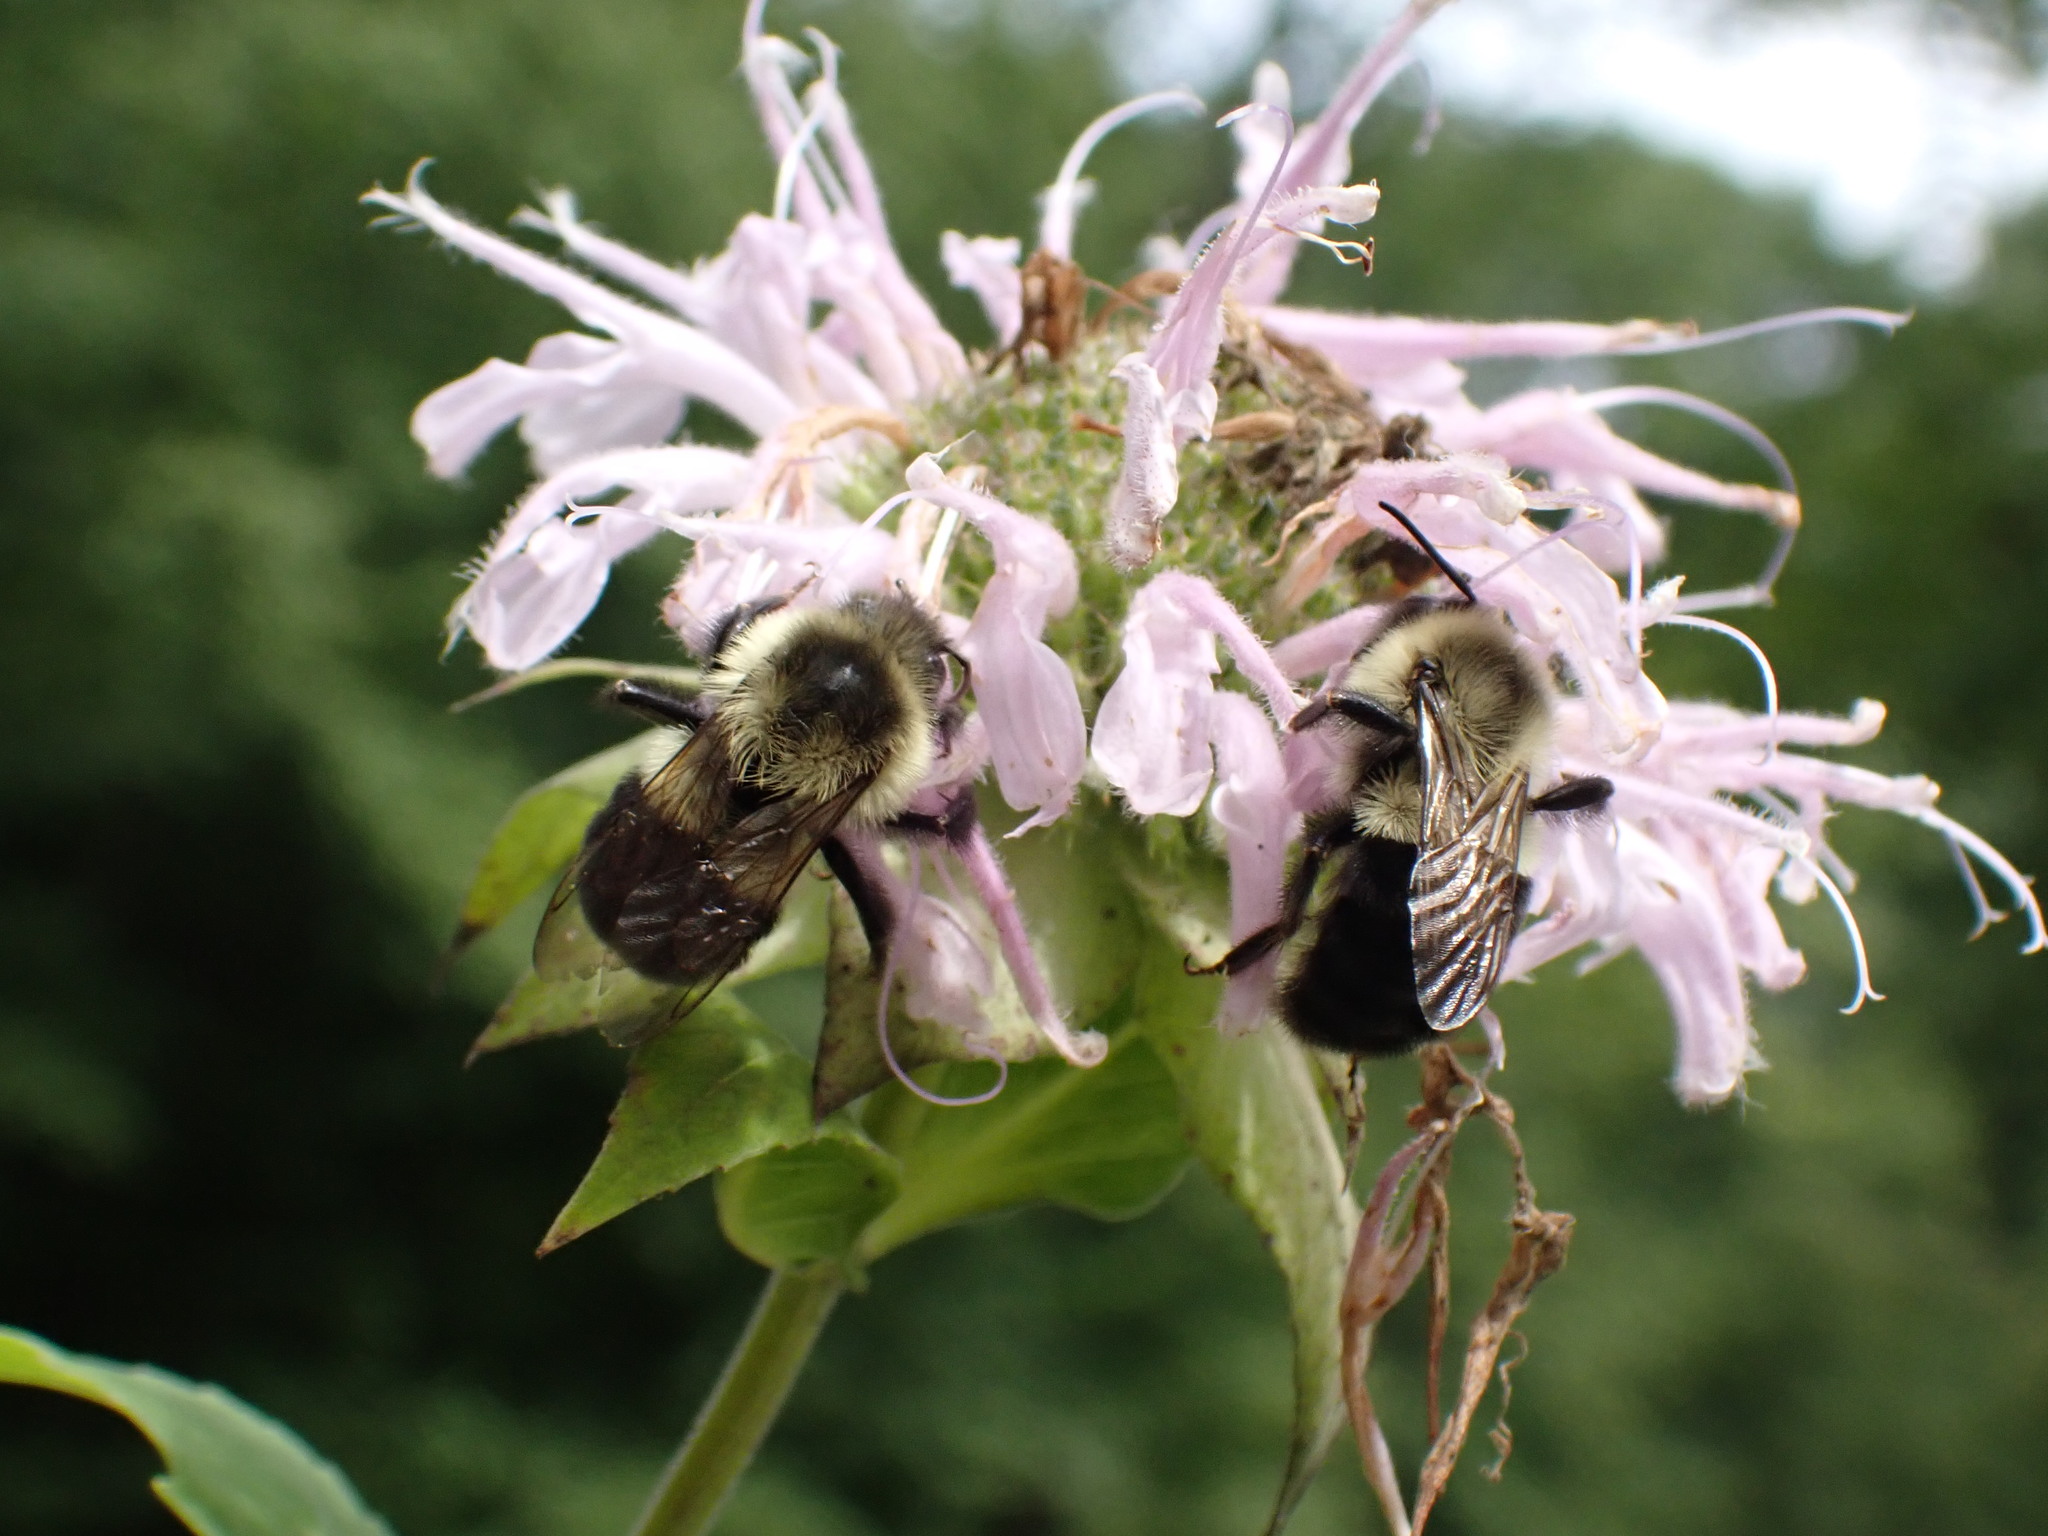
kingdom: Animalia
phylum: Arthropoda
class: Insecta
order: Hymenoptera
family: Apidae
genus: Bombus
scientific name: Bombus impatiens
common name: Common eastern bumble bee
